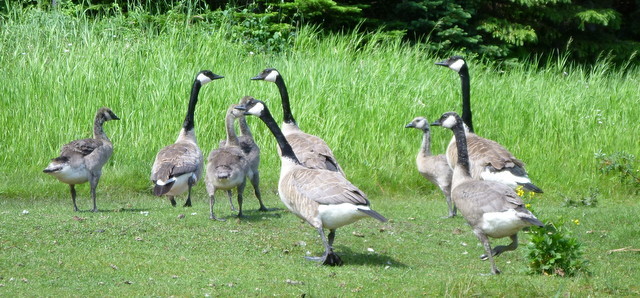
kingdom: Animalia
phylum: Chordata
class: Aves
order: Anseriformes
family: Anatidae
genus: Branta
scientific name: Branta canadensis
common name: Canada goose
